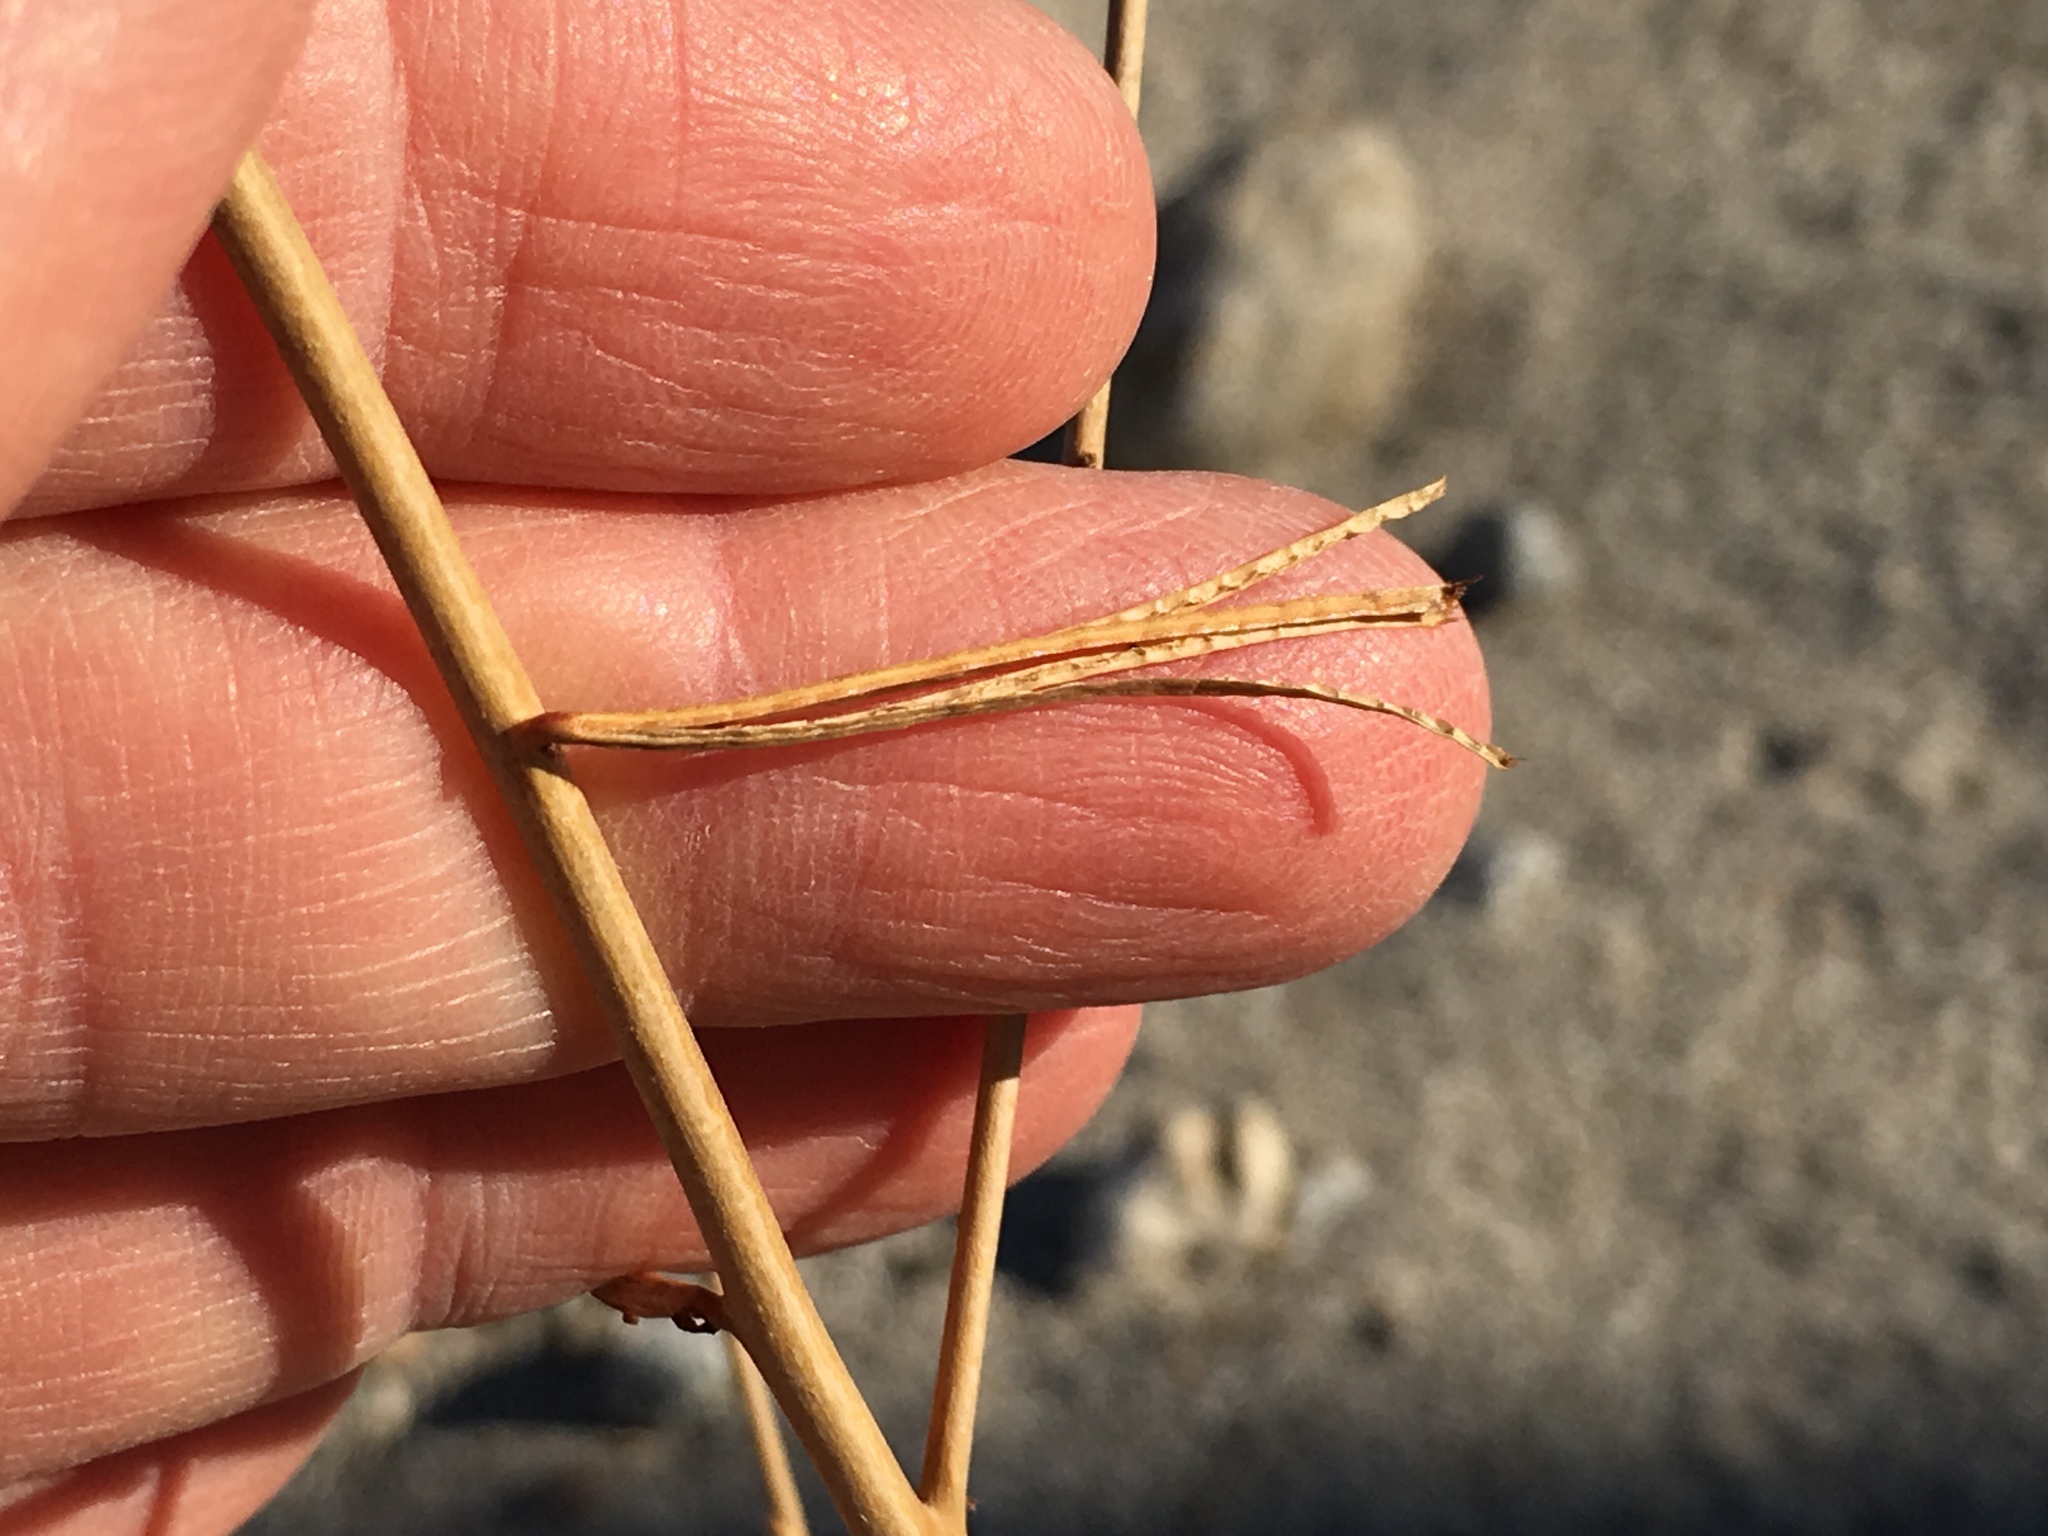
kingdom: Plantae
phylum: Tracheophyta
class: Magnoliopsida
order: Myrtales
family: Onagraceae
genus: Eulobus
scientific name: Eulobus californicus
